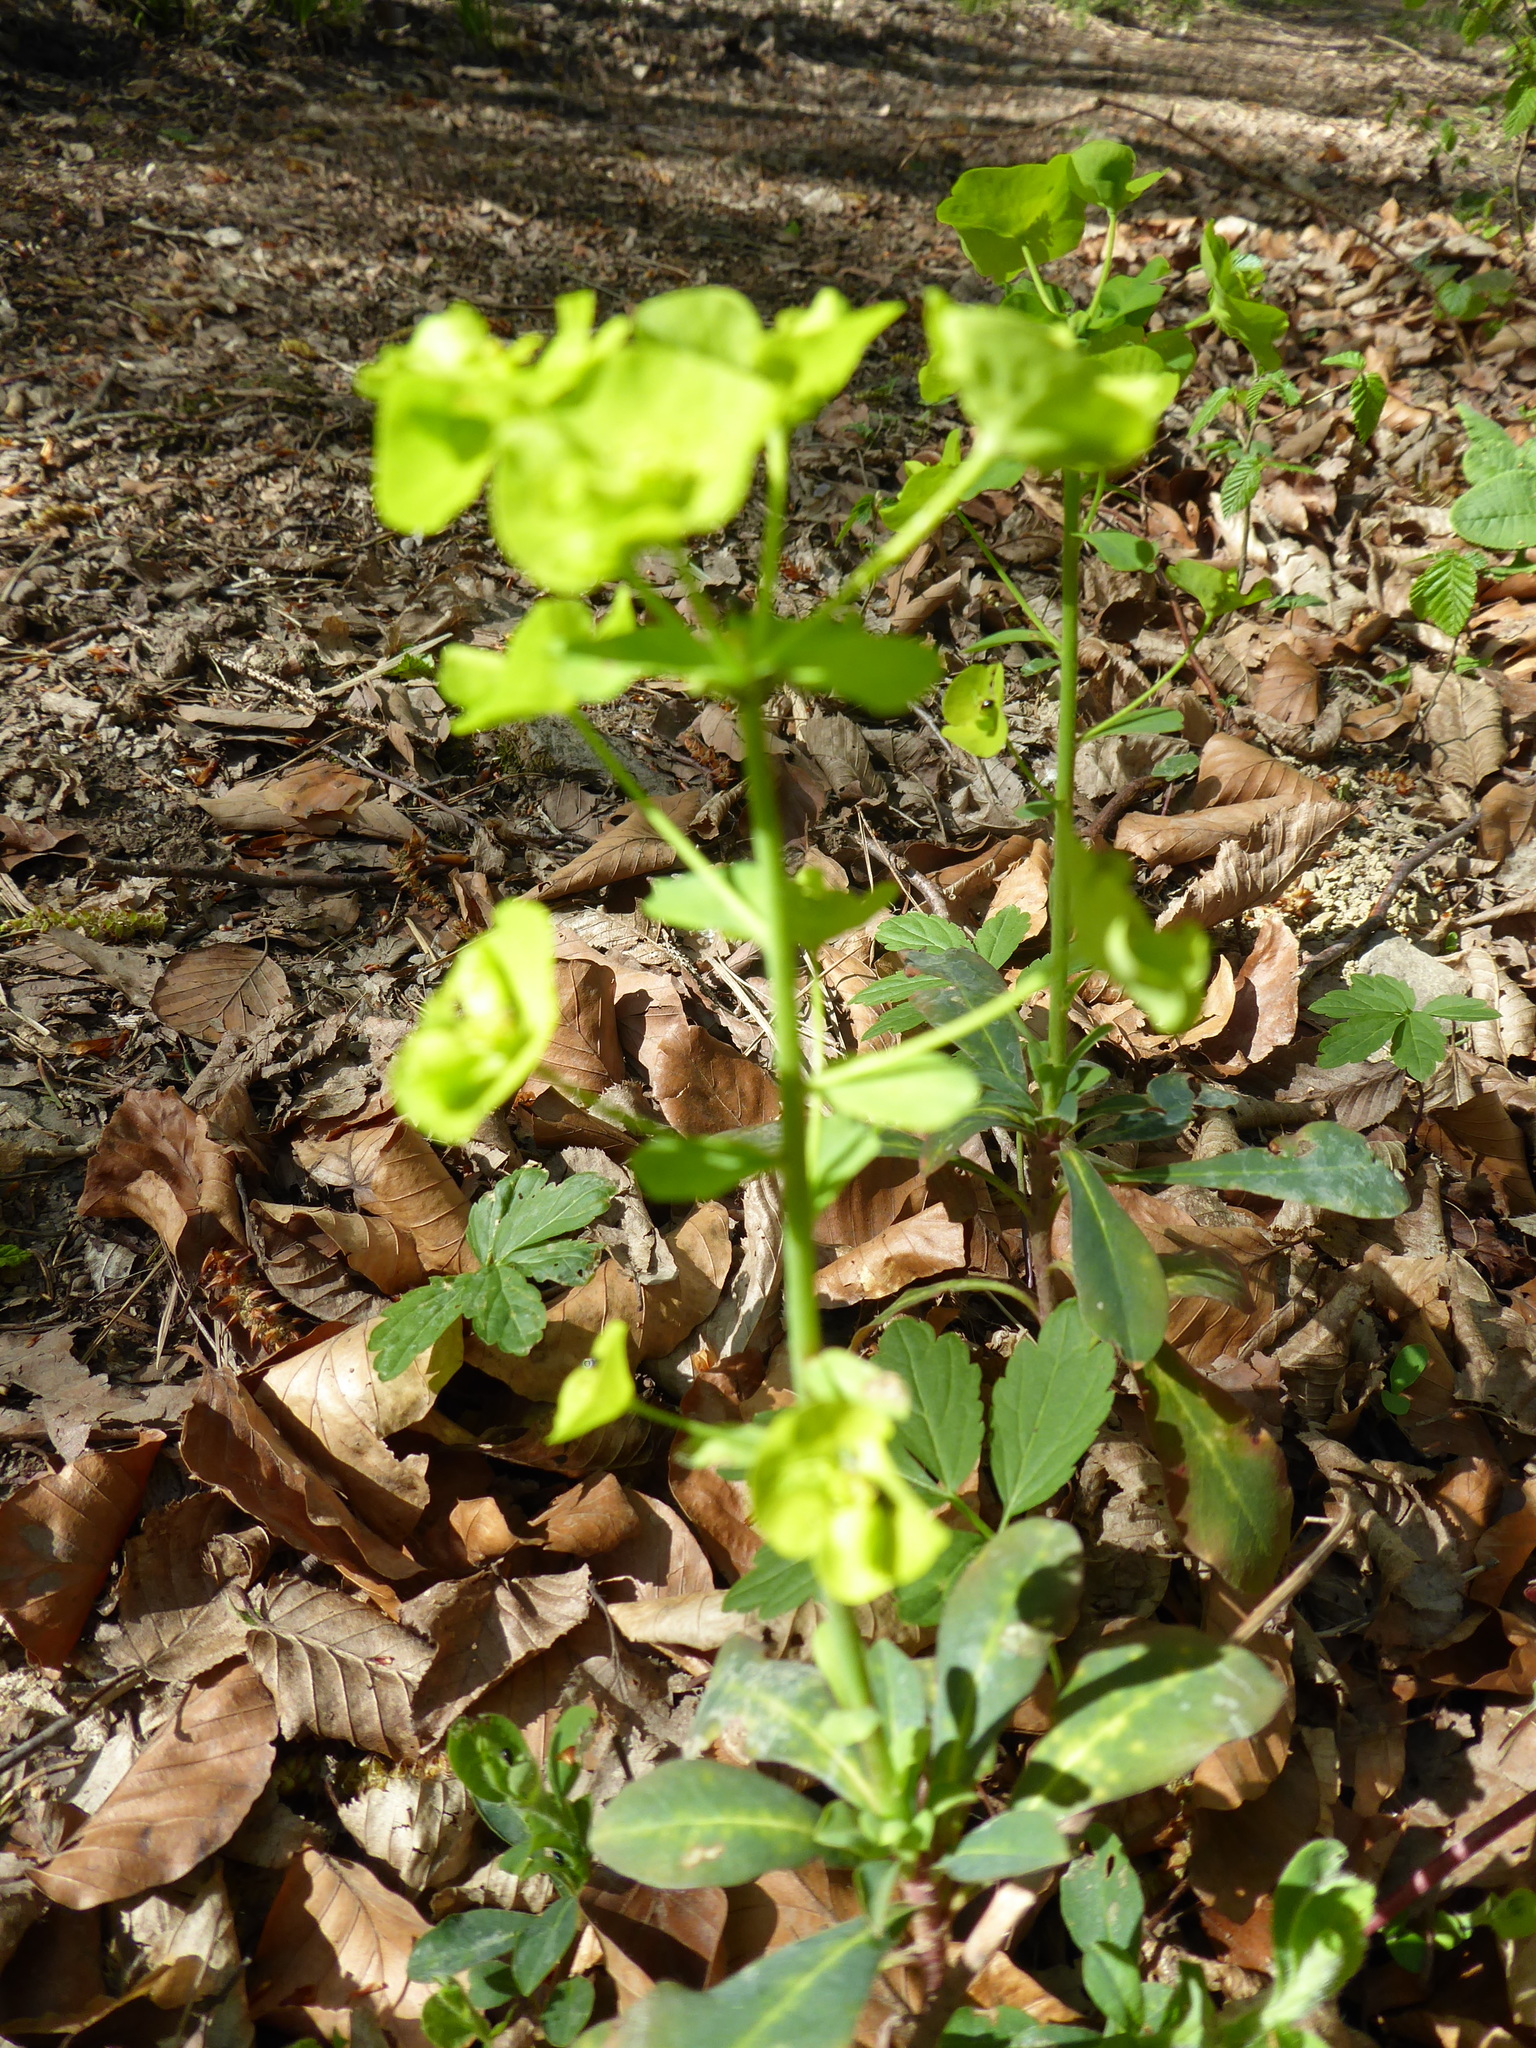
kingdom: Plantae
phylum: Tracheophyta
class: Magnoliopsida
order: Malpighiales
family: Euphorbiaceae
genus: Euphorbia
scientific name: Euphorbia amygdaloides
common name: Wood spurge
